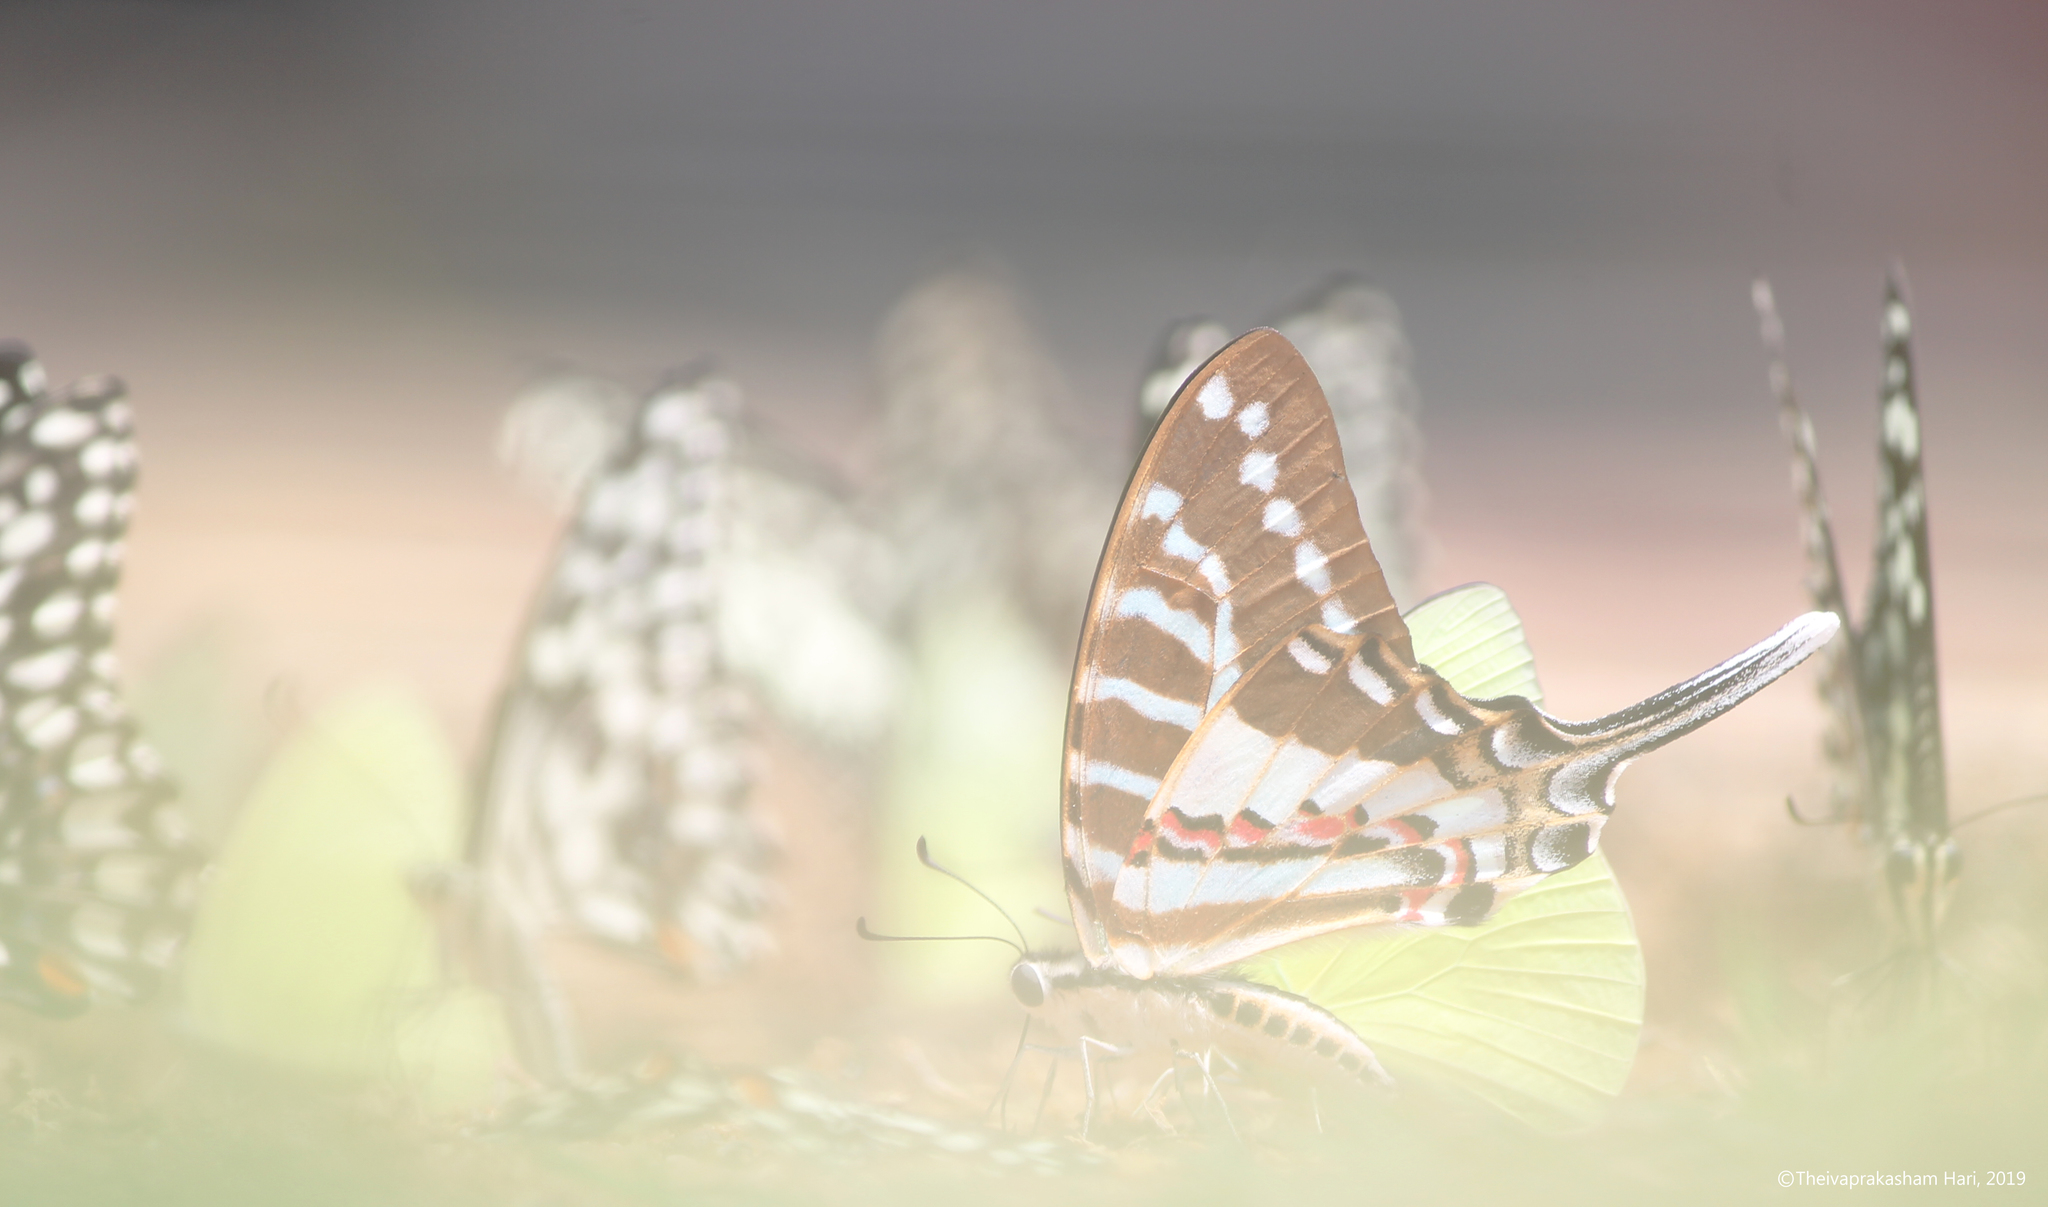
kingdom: Animalia
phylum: Arthropoda
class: Insecta
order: Lepidoptera
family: Papilionidae
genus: Graphium
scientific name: Graphium nomius
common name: Spot swordtail
